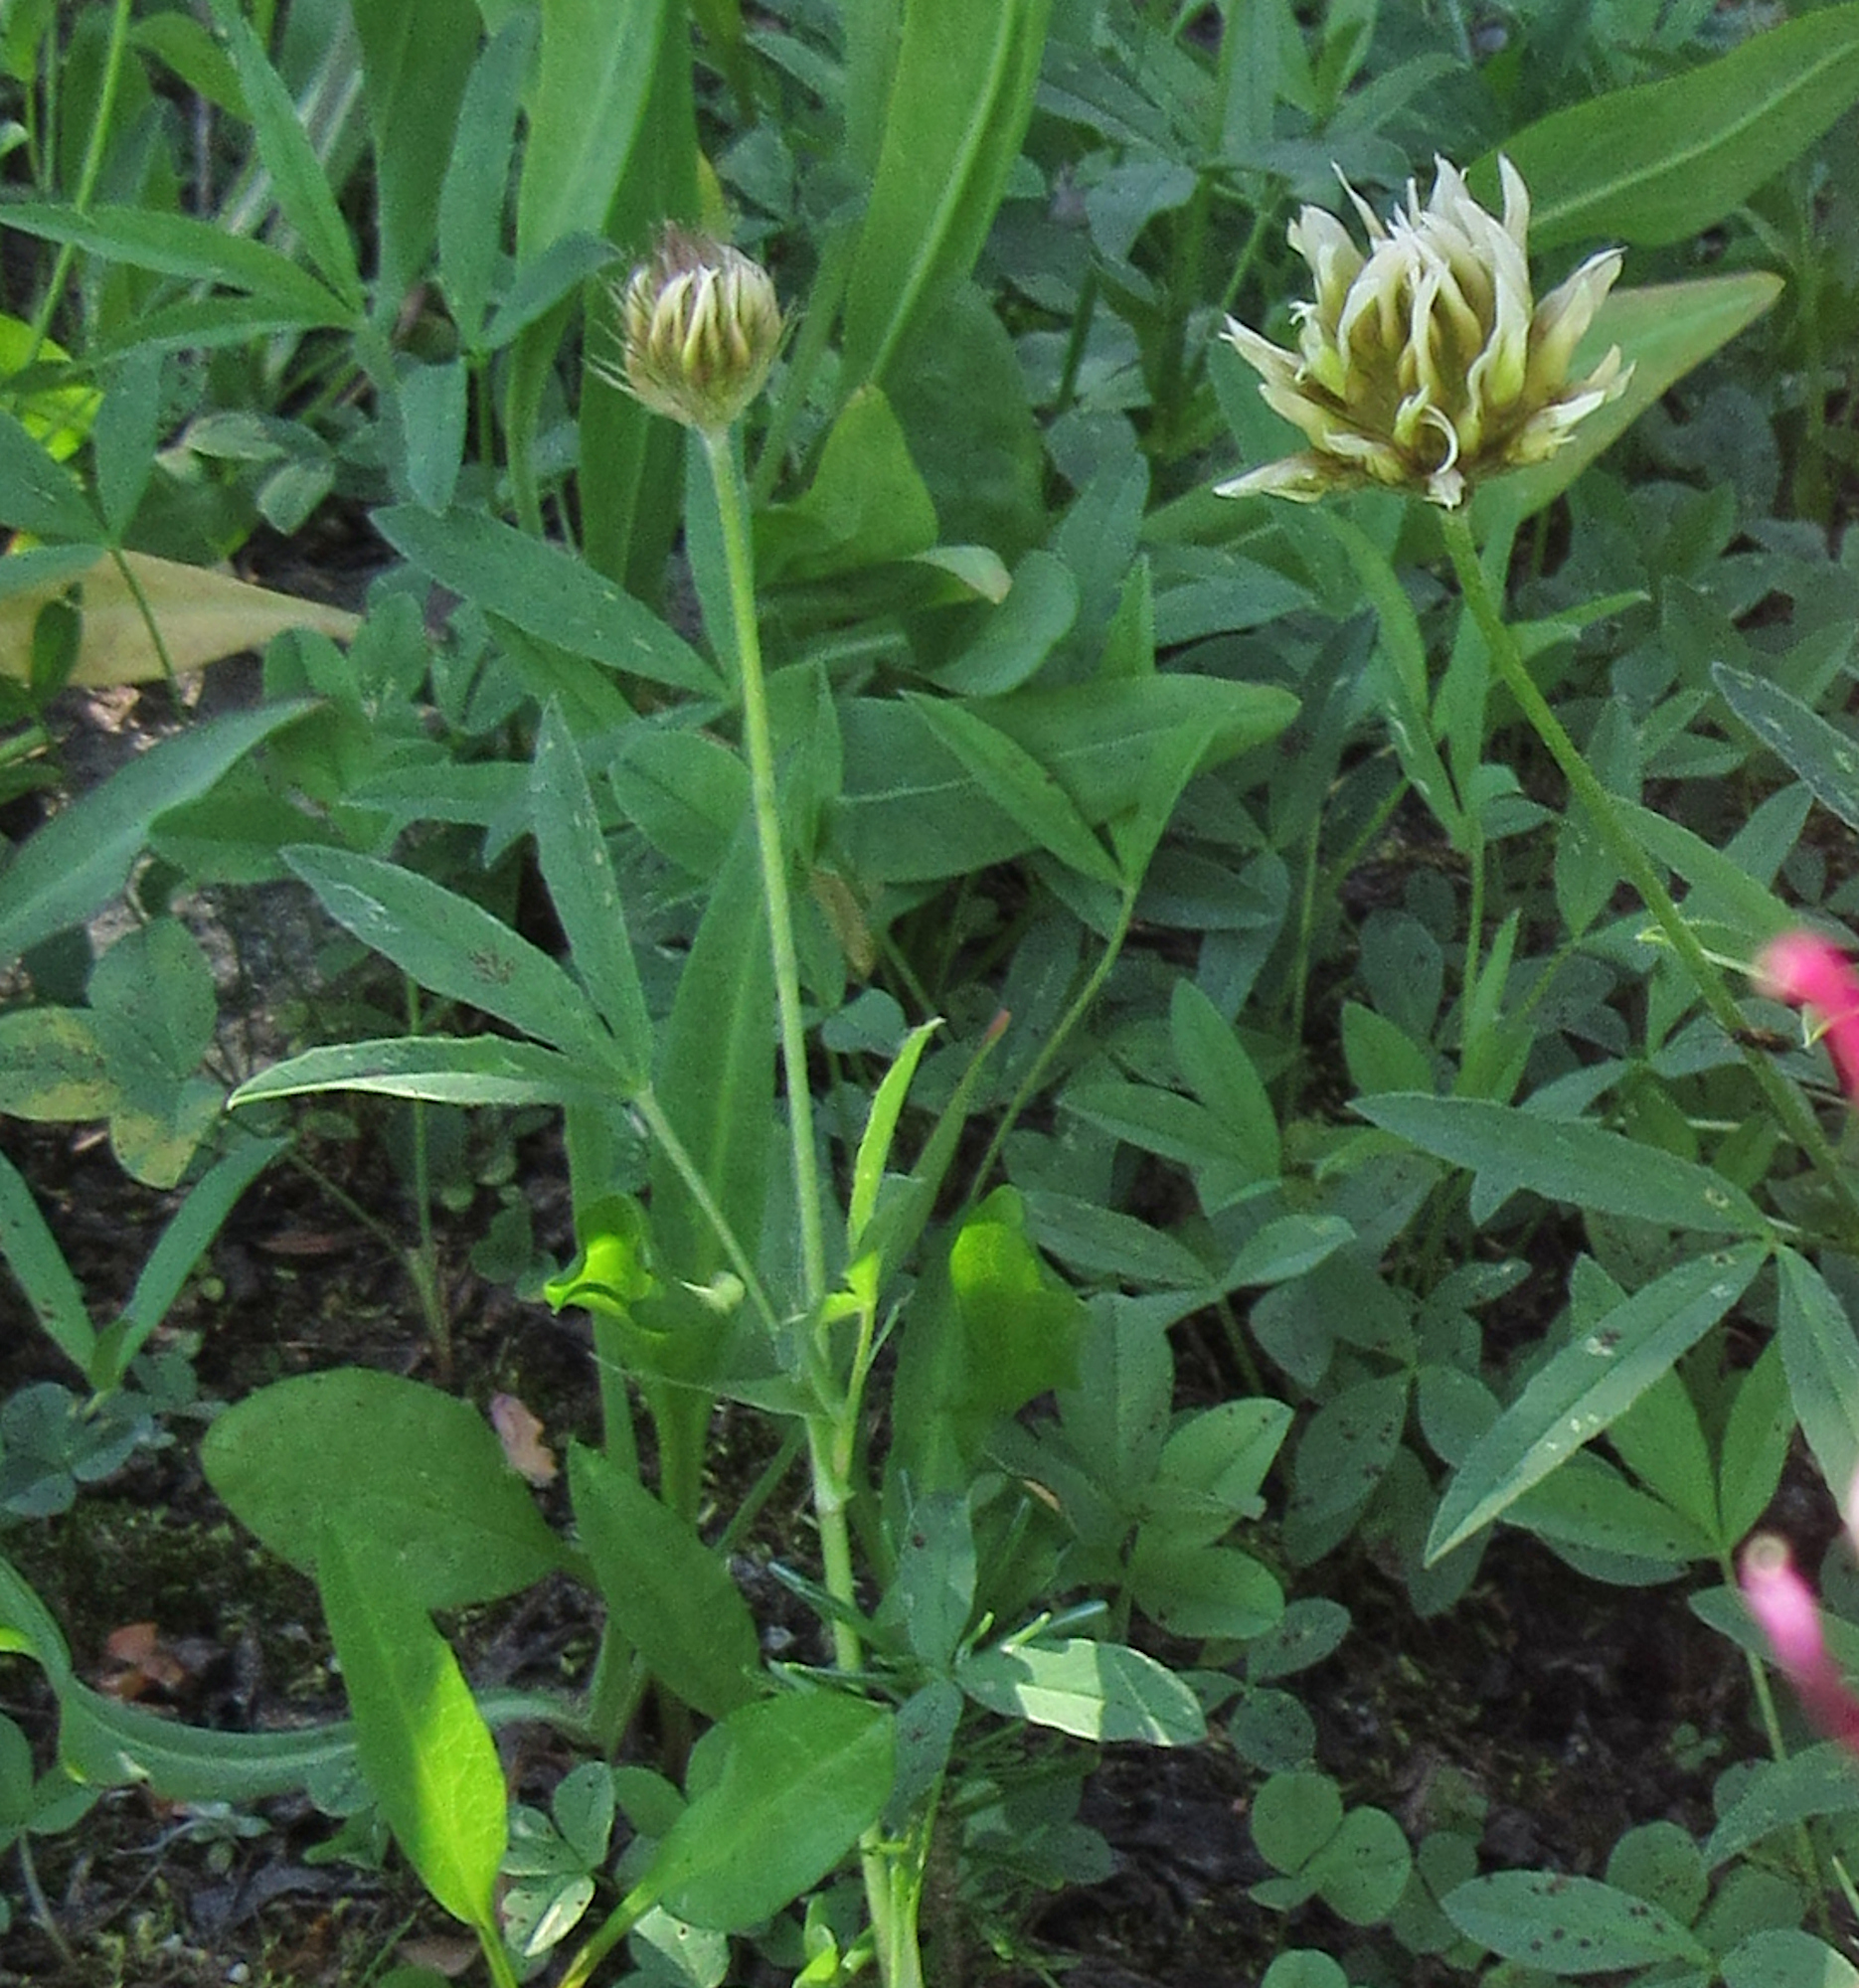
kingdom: Plantae
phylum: Tracheophyta
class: Magnoliopsida
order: Fabales
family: Fabaceae
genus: Trifolium
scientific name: Trifolium longipes
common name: Long-stalk clover
